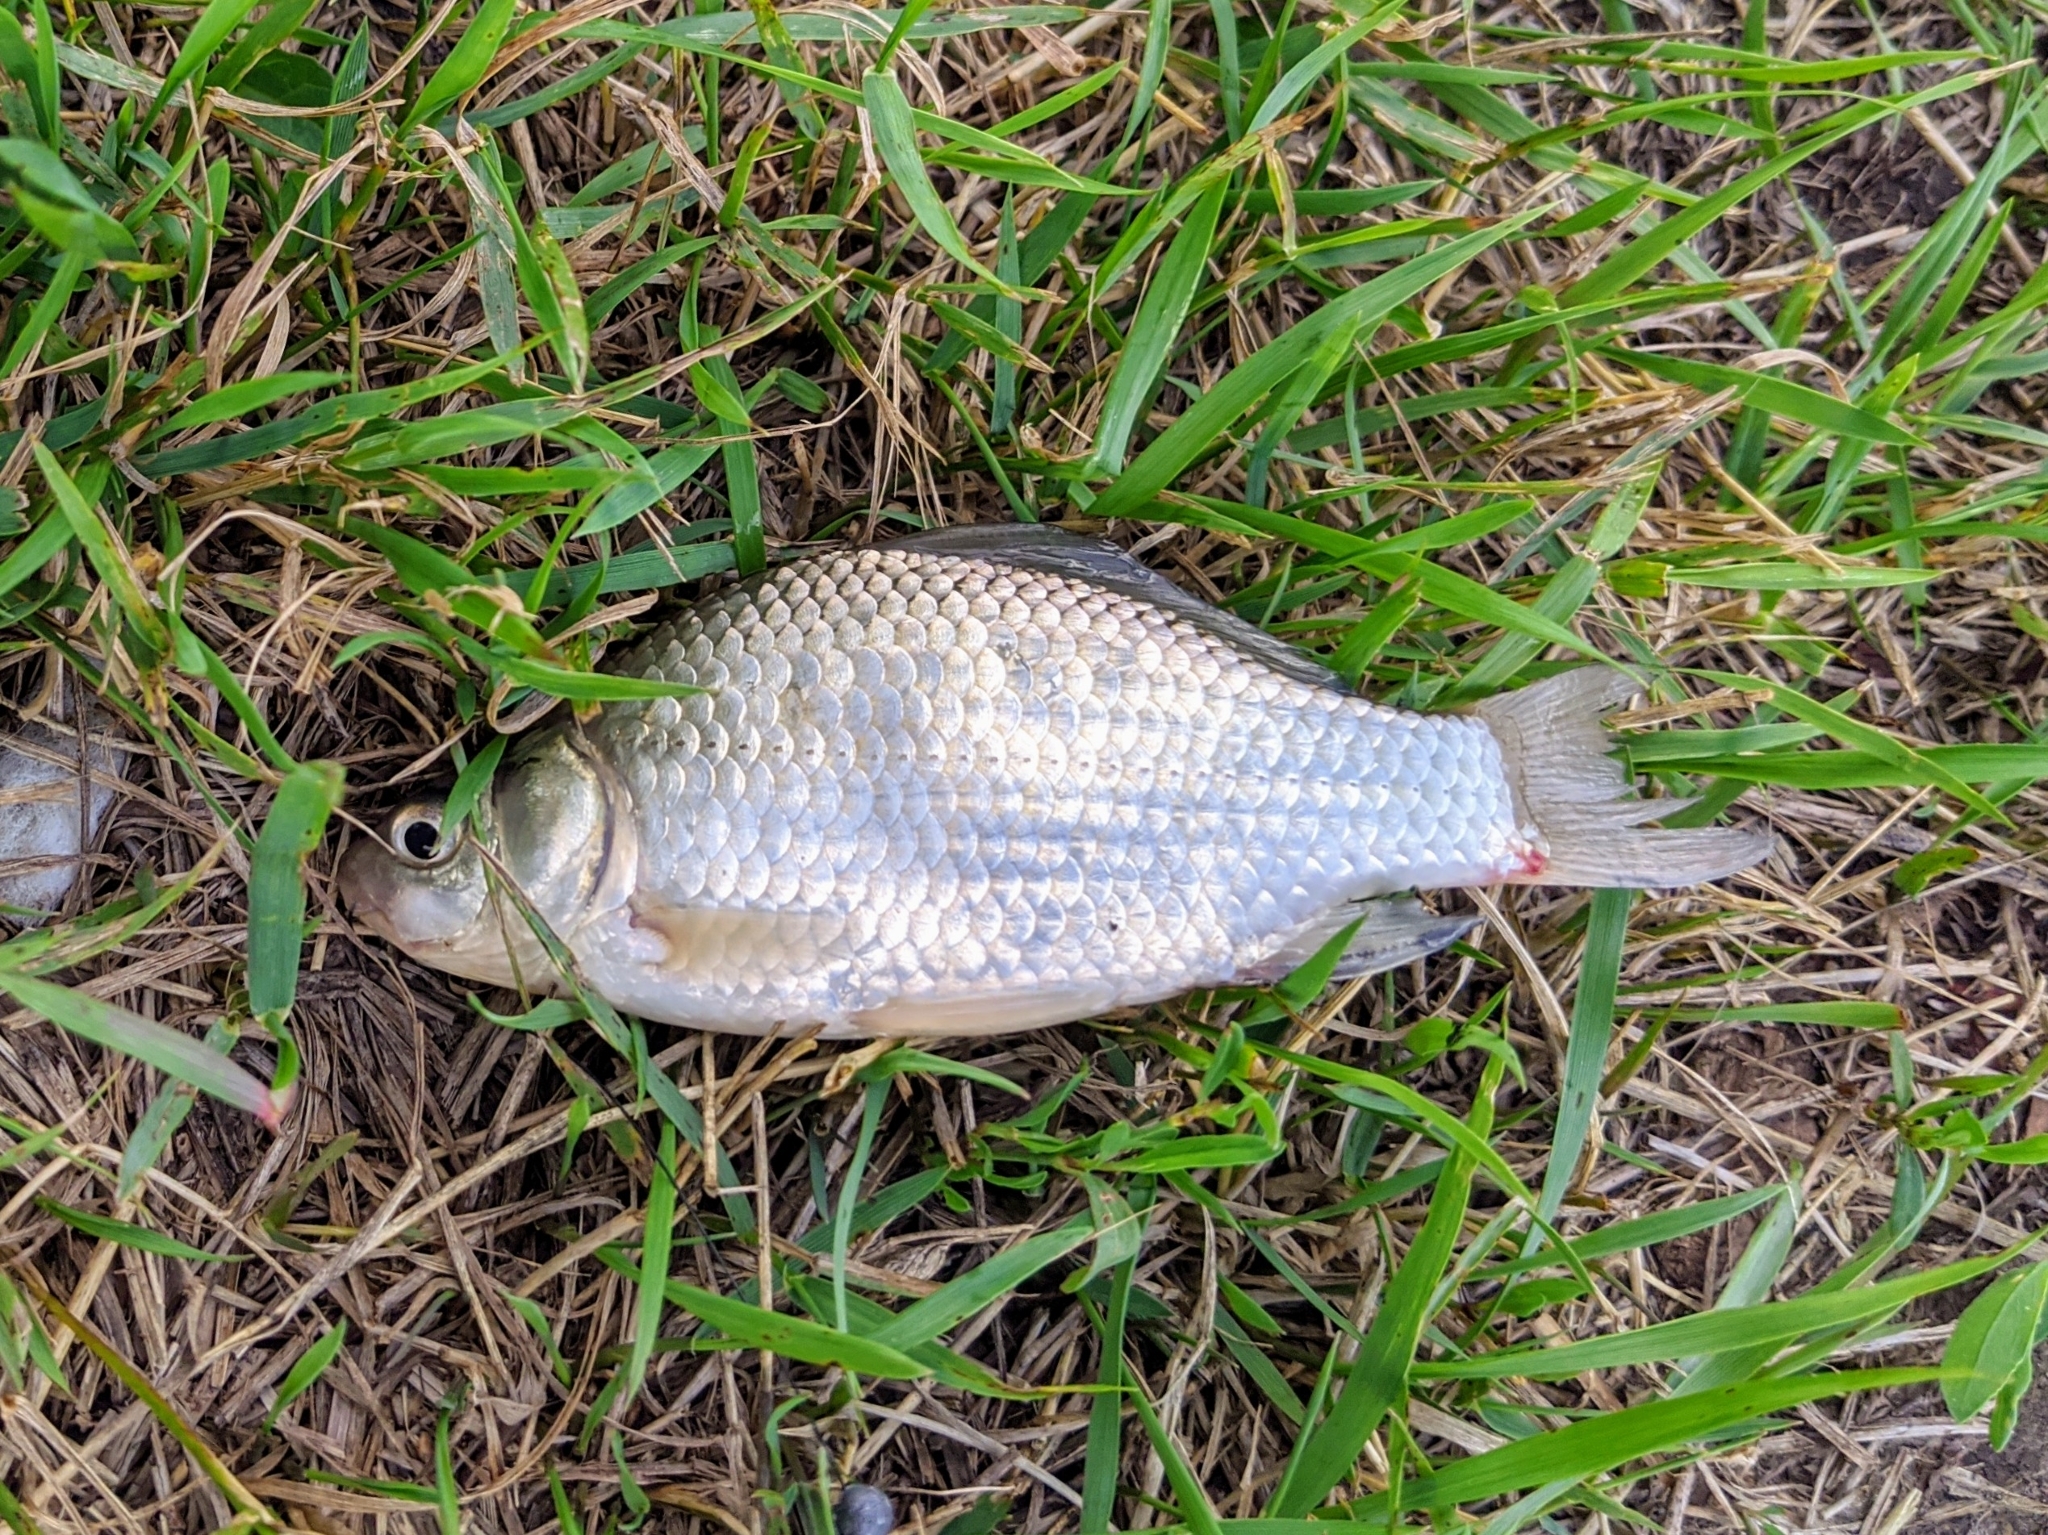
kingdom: Animalia
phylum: Chordata
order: Cypriniformes
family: Cyprinidae
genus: Carassius
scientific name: Carassius gibelio
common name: Prussian carp
